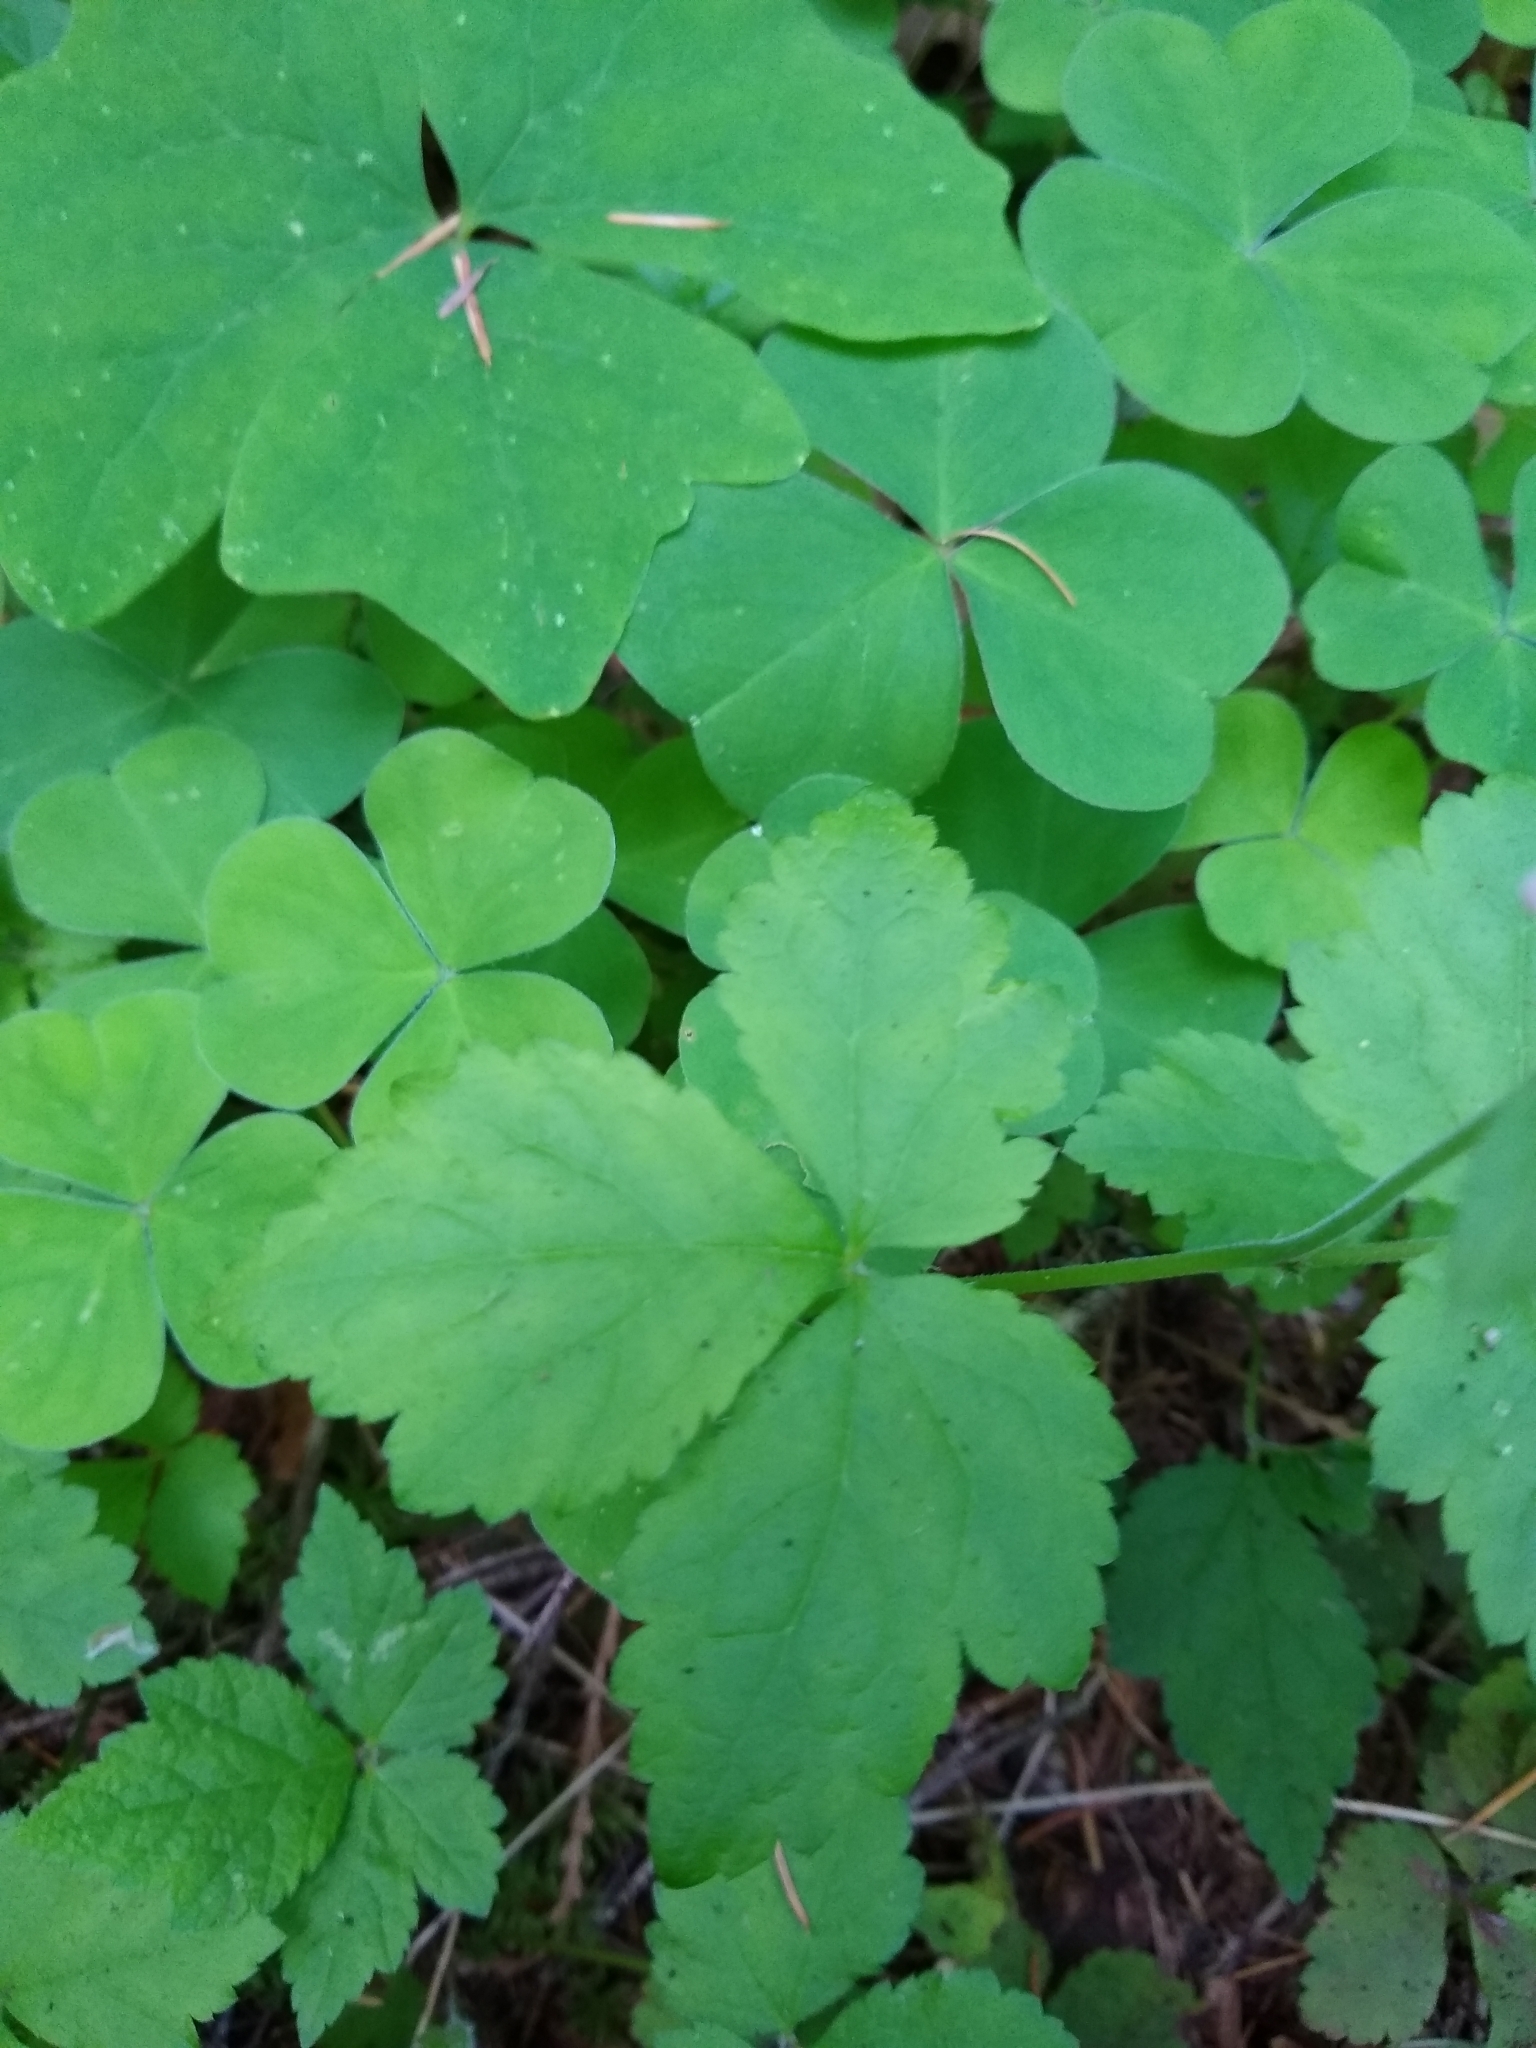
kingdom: Plantae
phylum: Tracheophyta
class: Magnoliopsida
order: Saxifragales
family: Saxifragaceae
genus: Tiarella
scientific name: Tiarella trifoliata
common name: Sugar-scoop
